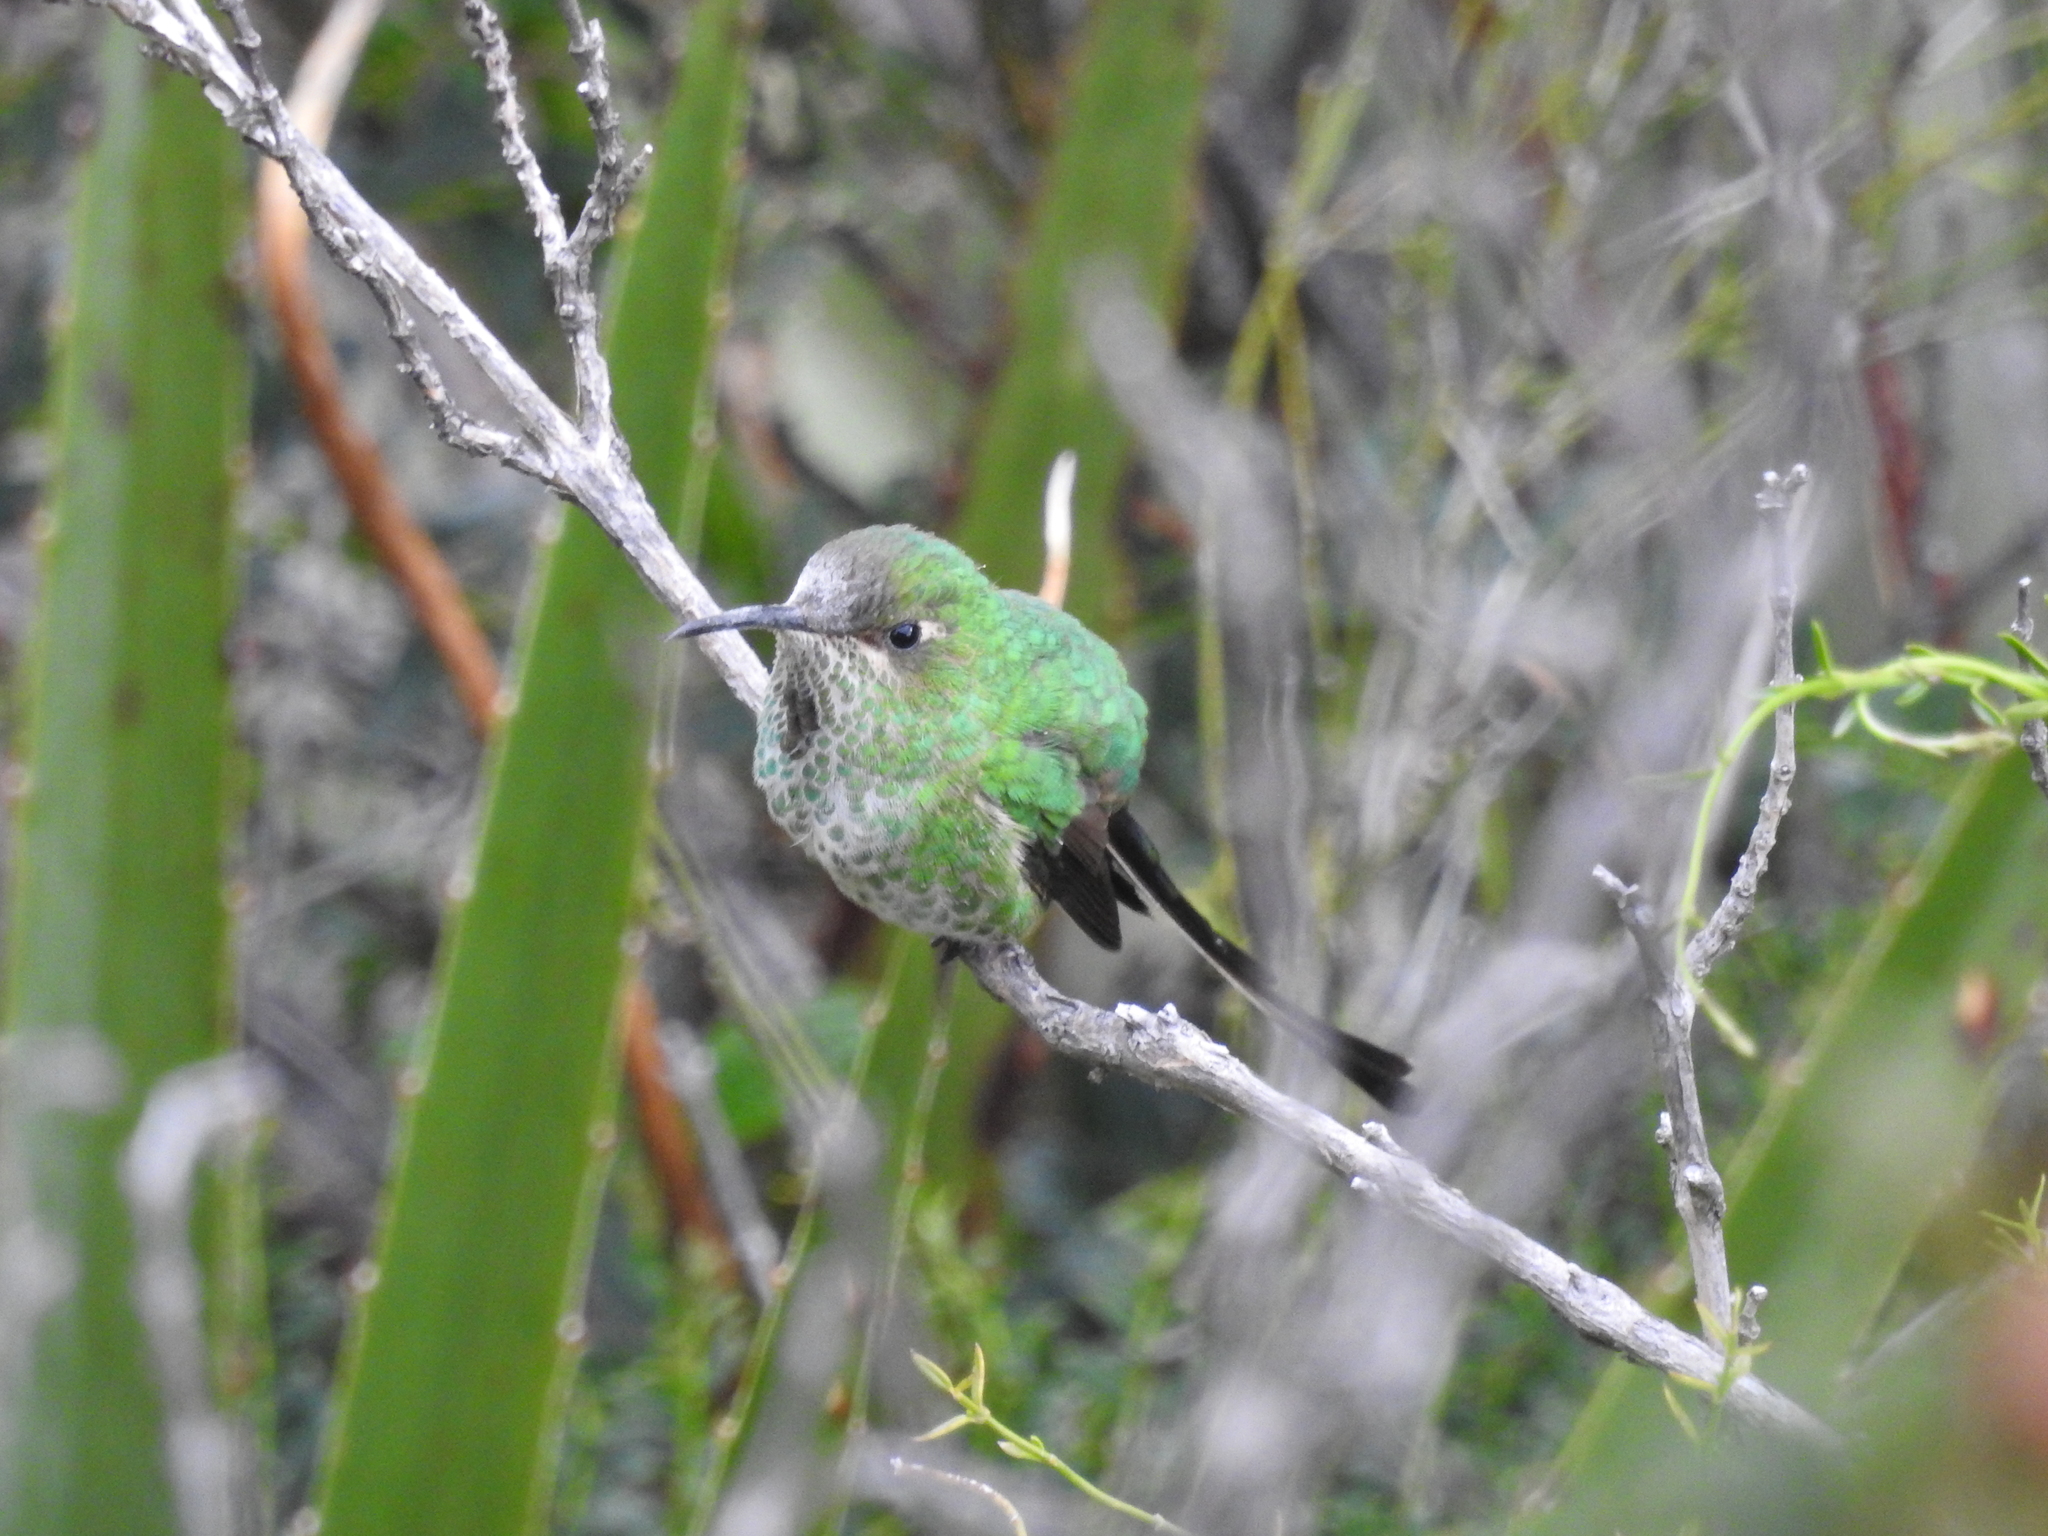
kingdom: Animalia
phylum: Chordata
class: Aves
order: Apodiformes
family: Trochilidae
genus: Lesbia
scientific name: Lesbia victoriae
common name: Black-tailed trainbearer
